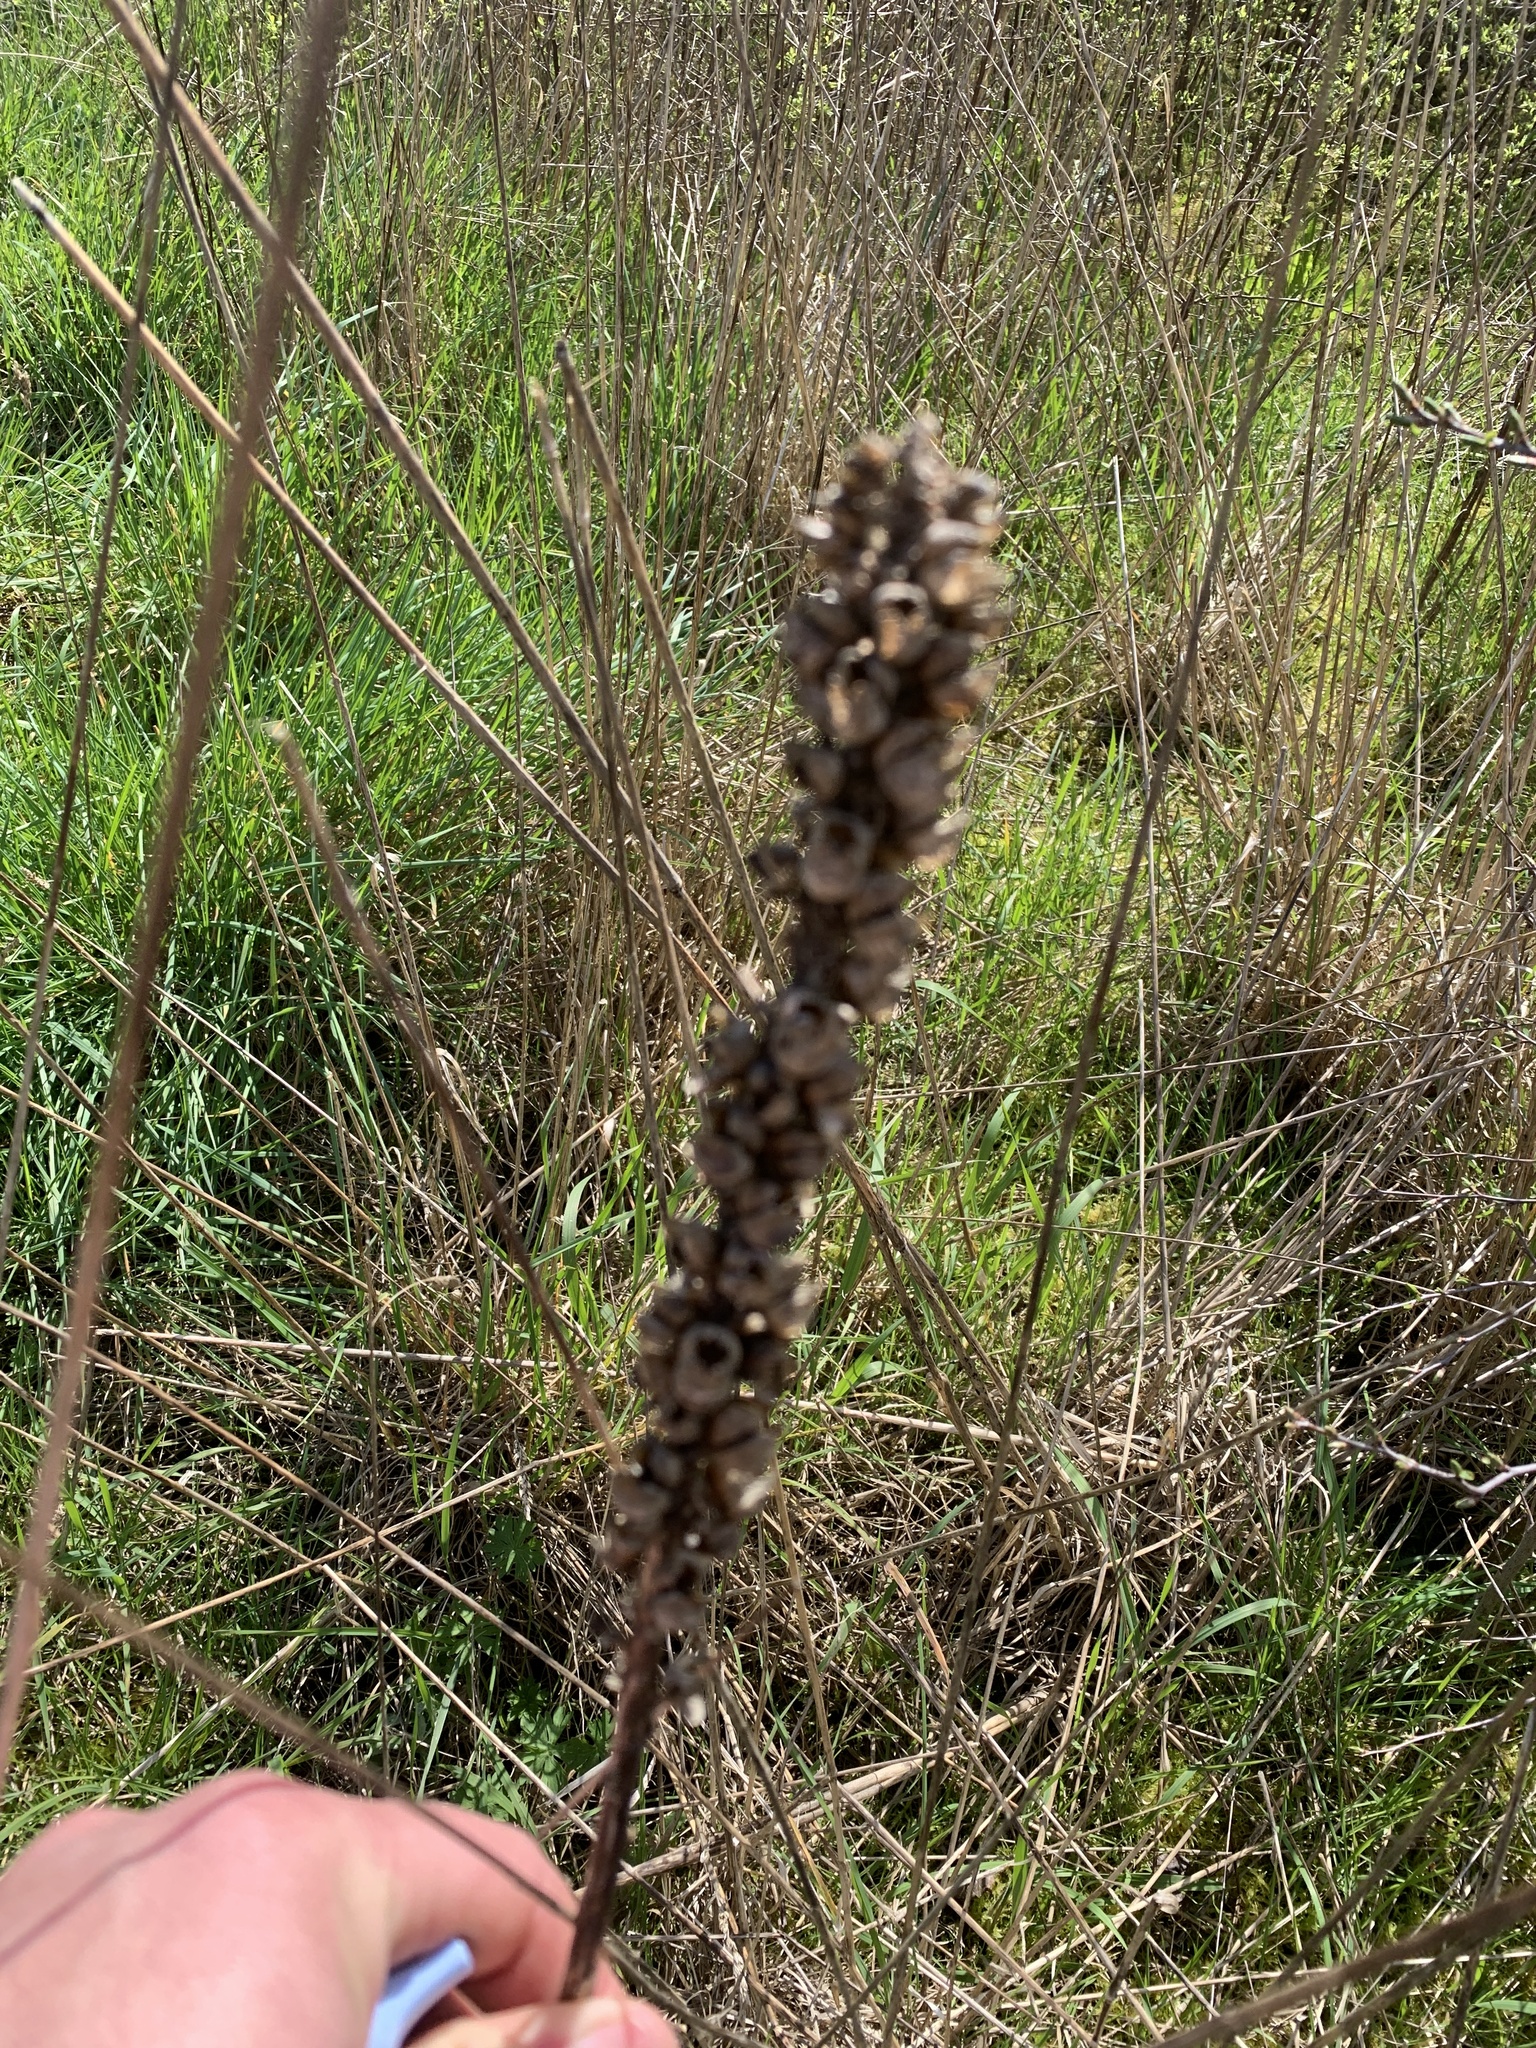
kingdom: Plantae
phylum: Tracheophyta
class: Magnoliopsida
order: Lamiales
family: Scrophulariaceae
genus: Verbascum
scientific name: Verbascum thapsus
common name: Common mullein
